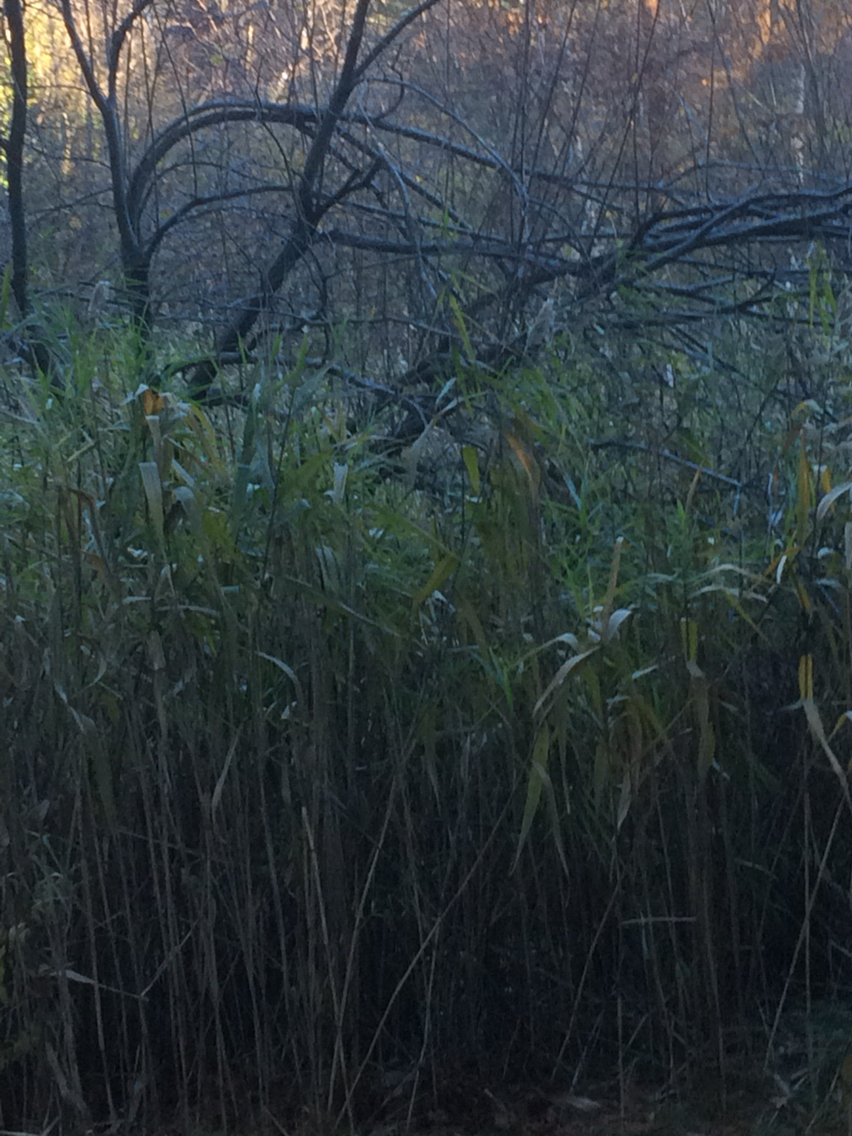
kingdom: Plantae
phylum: Tracheophyta
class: Liliopsida
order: Poales
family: Poaceae
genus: Phragmites
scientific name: Phragmites australis
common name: Common reed
